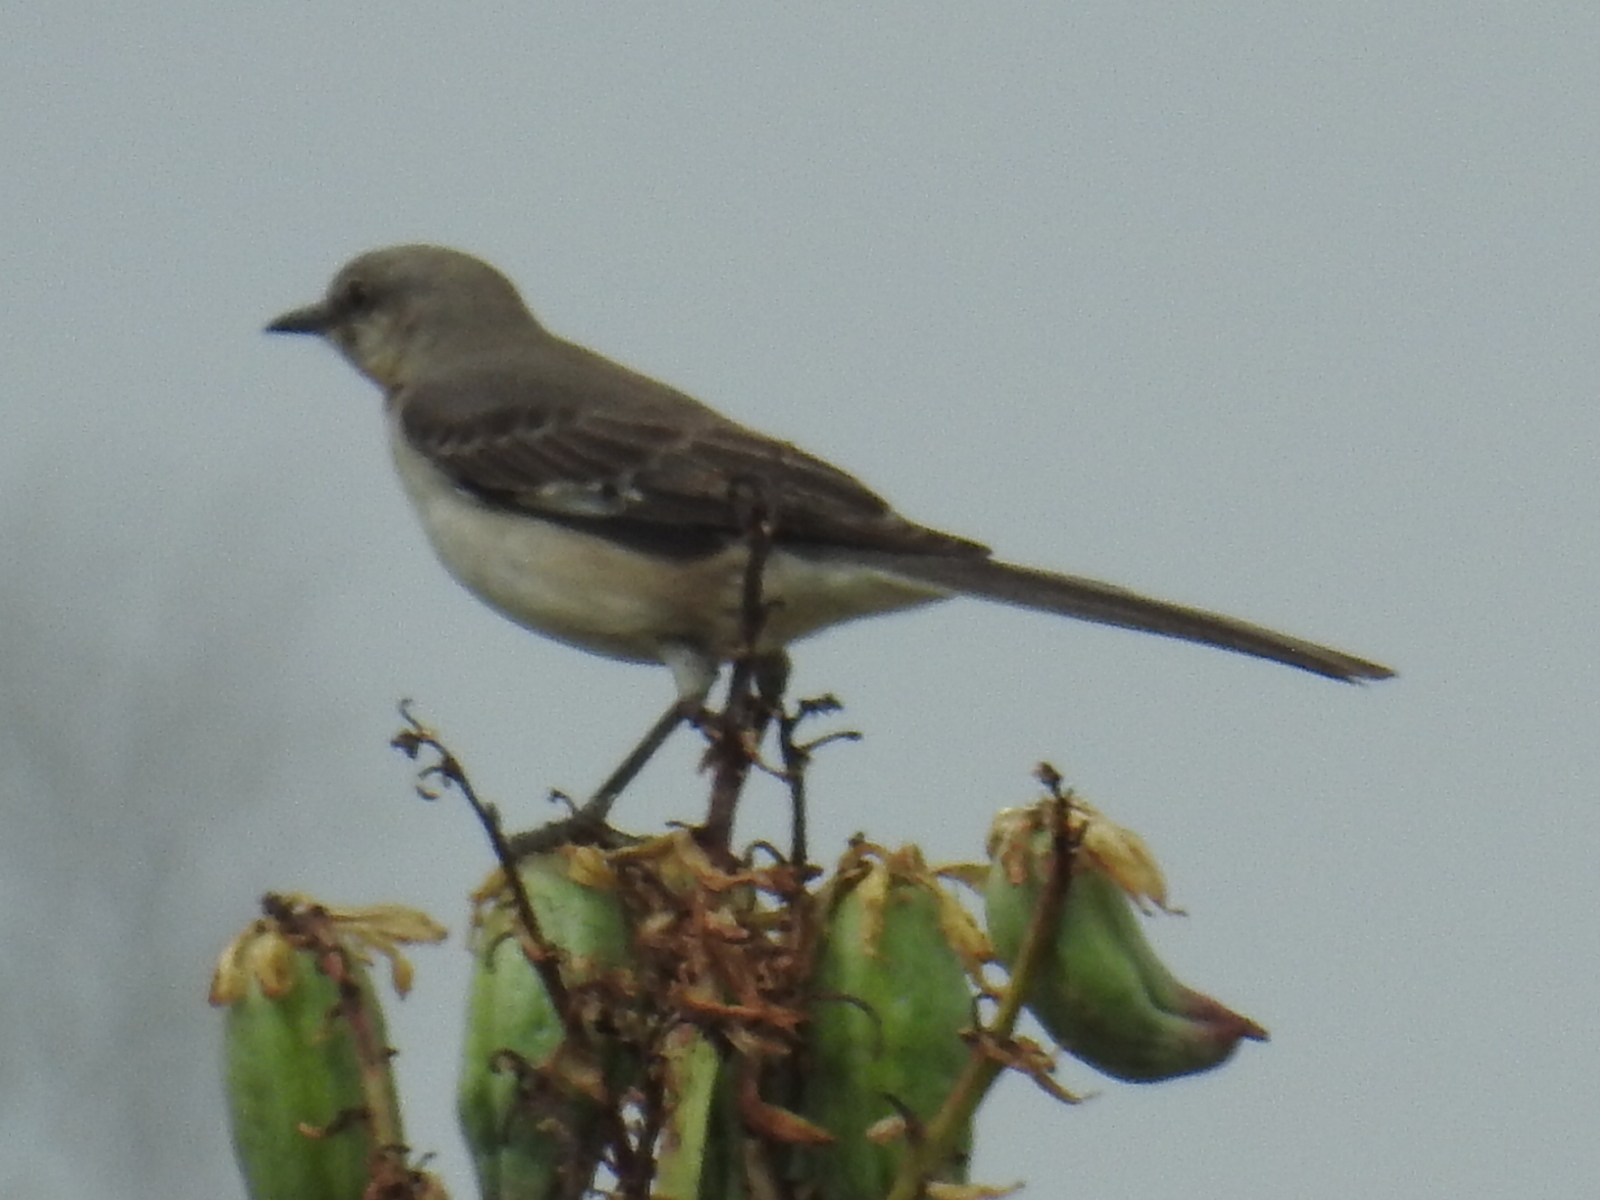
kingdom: Animalia
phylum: Chordata
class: Aves
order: Passeriformes
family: Mimidae
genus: Mimus
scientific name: Mimus polyglottos
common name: Northern mockingbird
